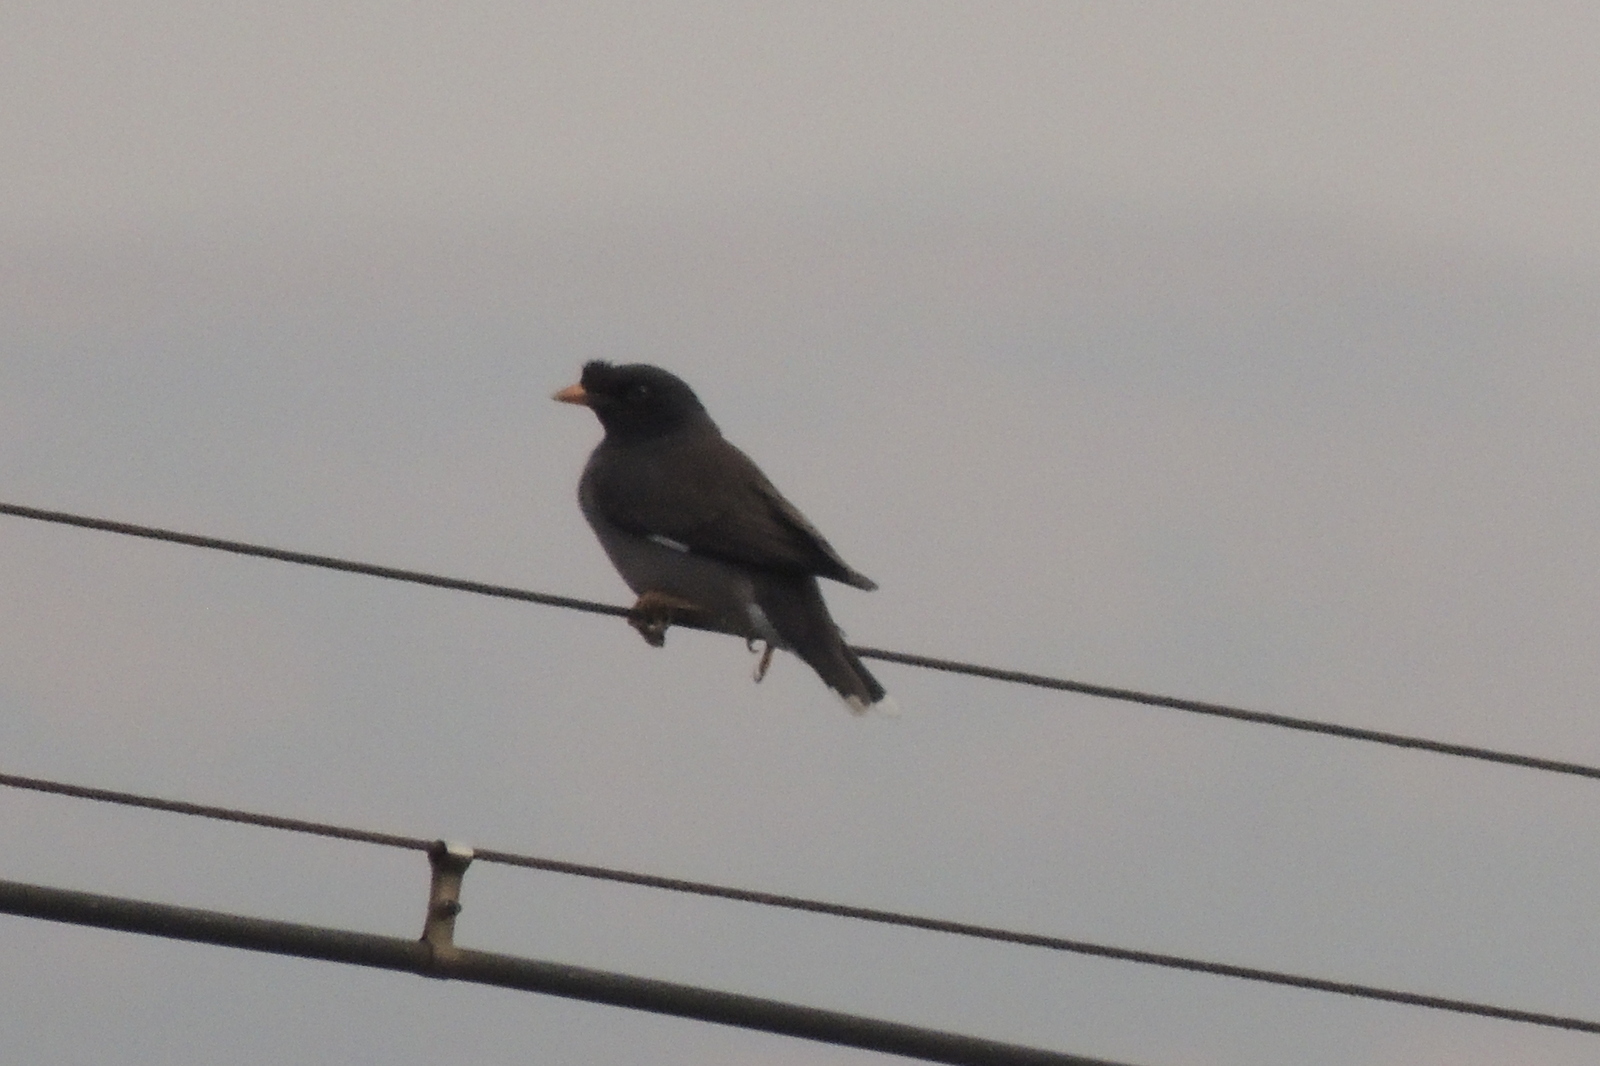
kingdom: Animalia
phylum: Chordata
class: Aves
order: Passeriformes
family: Sturnidae
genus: Acridotheres
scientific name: Acridotheres fuscus
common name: Jungle myna
